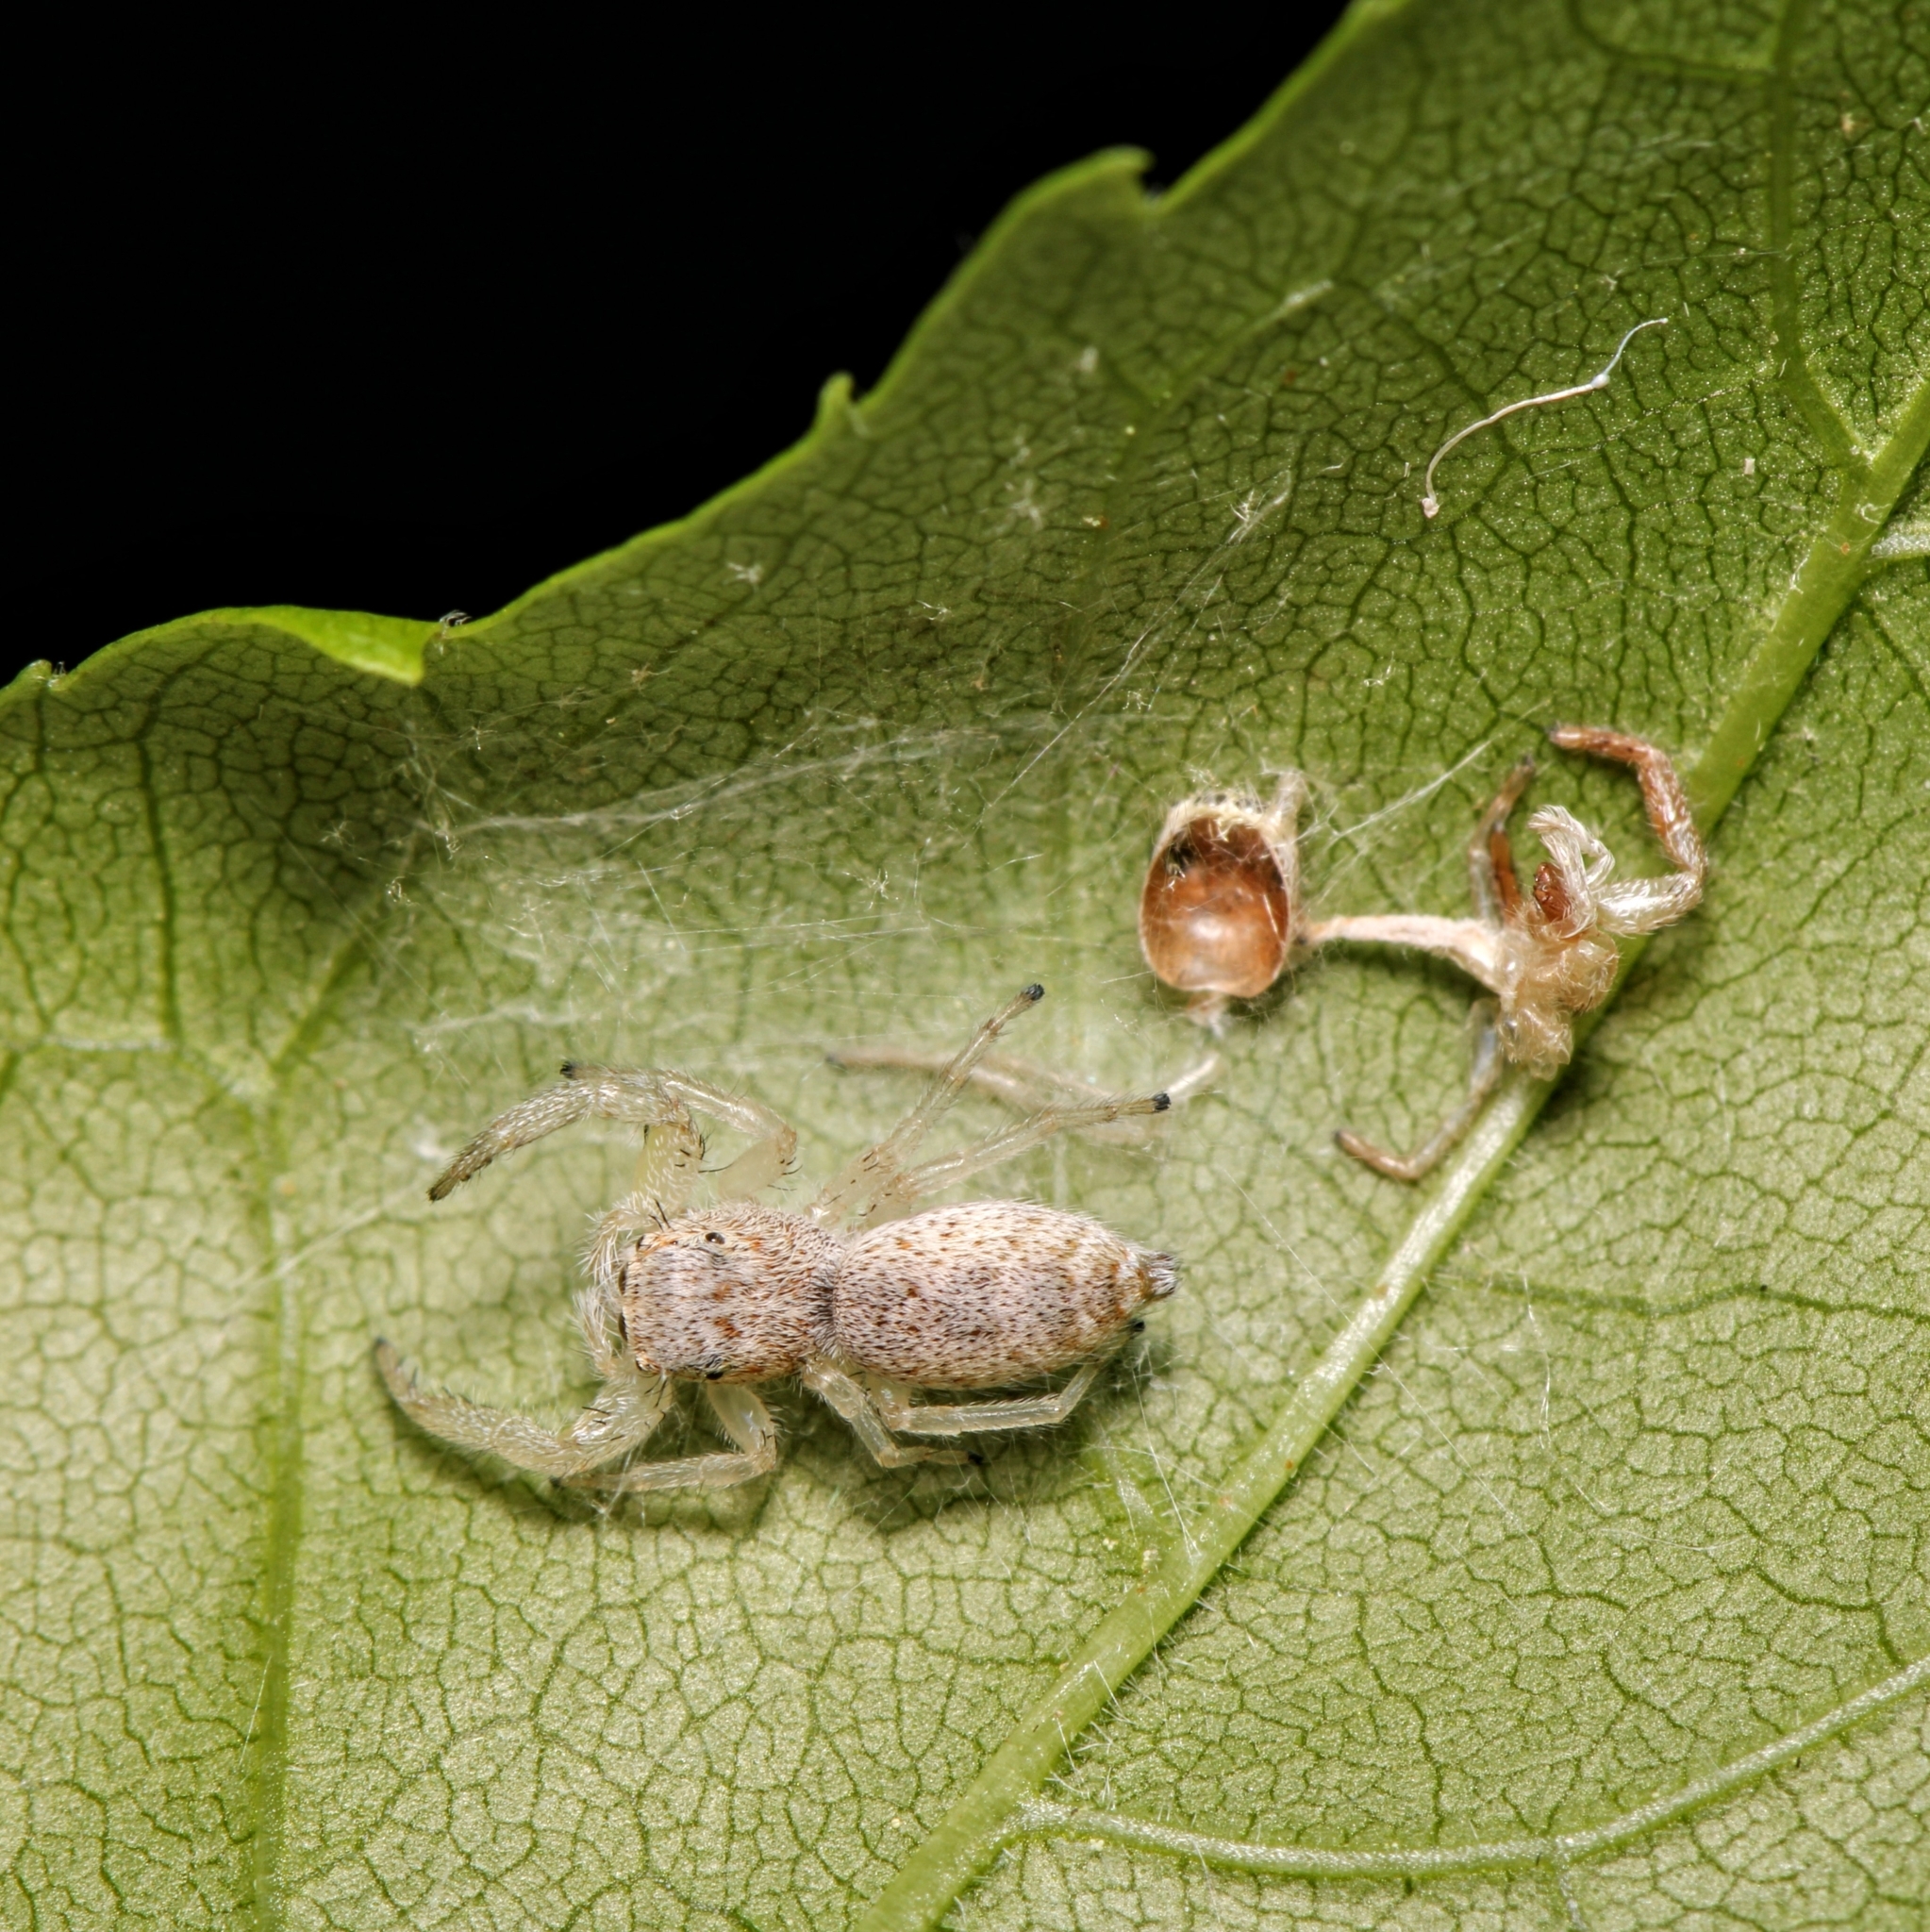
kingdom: Animalia
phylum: Arthropoda
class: Arachnida
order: Araneae
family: Salticidae
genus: Hentzia
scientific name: Hentzia mitrata
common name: White-jawed jumping spider
